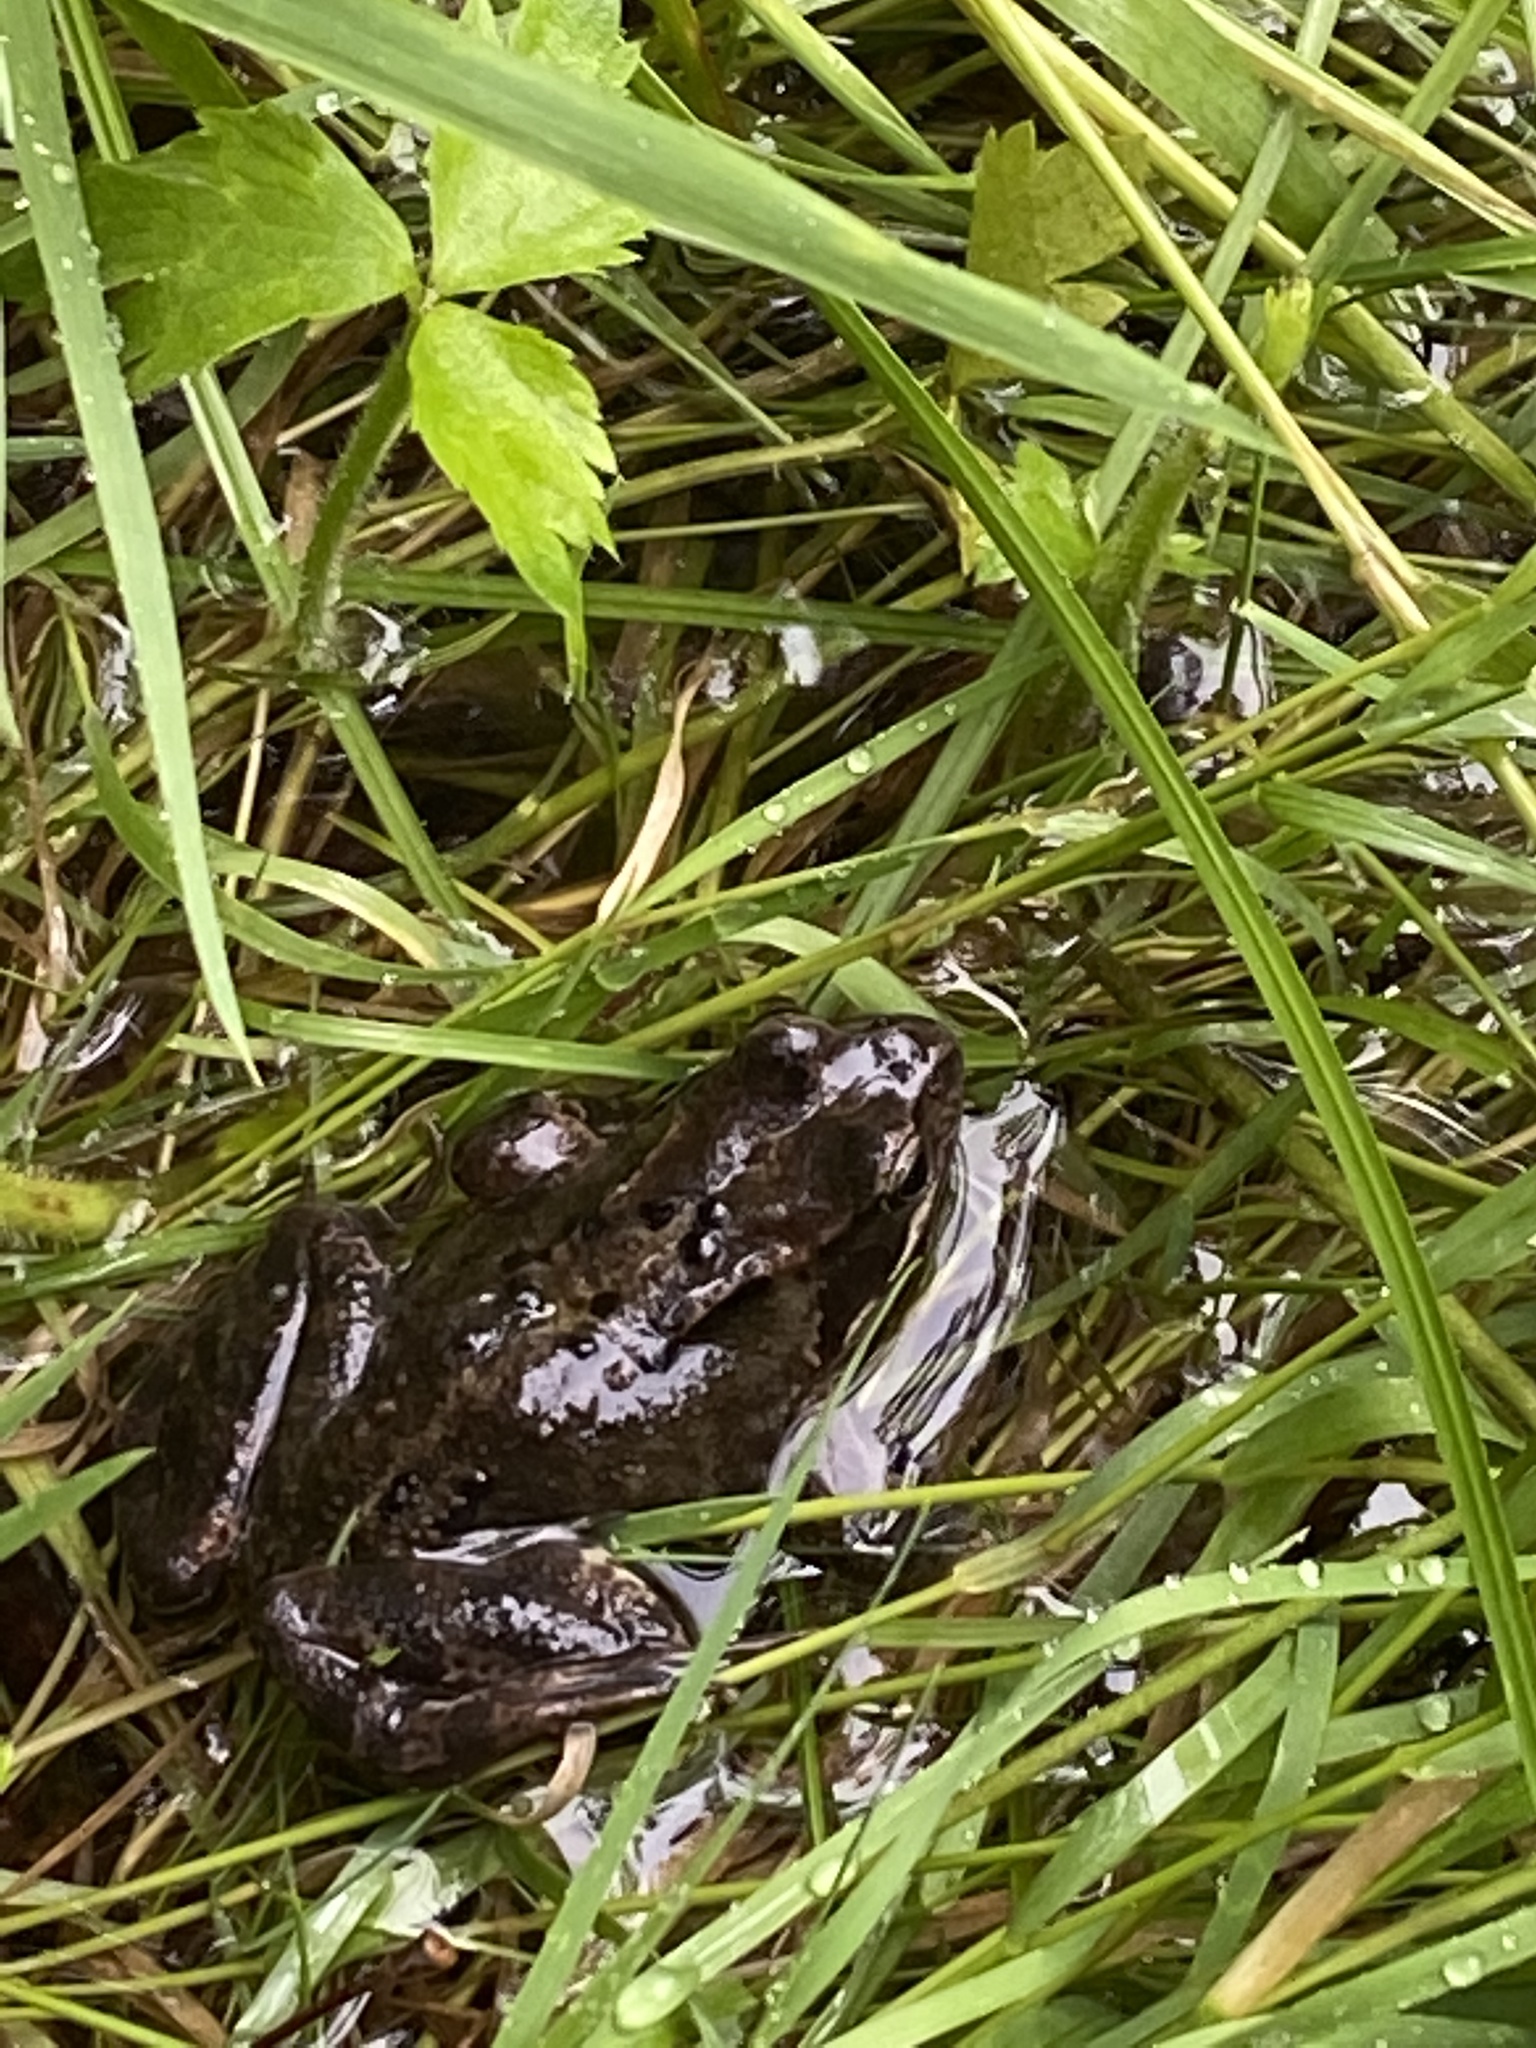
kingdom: Animalia
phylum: Chordata
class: Amphibia
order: Anura
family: Ranidae
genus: Rana
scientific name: Rana temporaria
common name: Common frog
